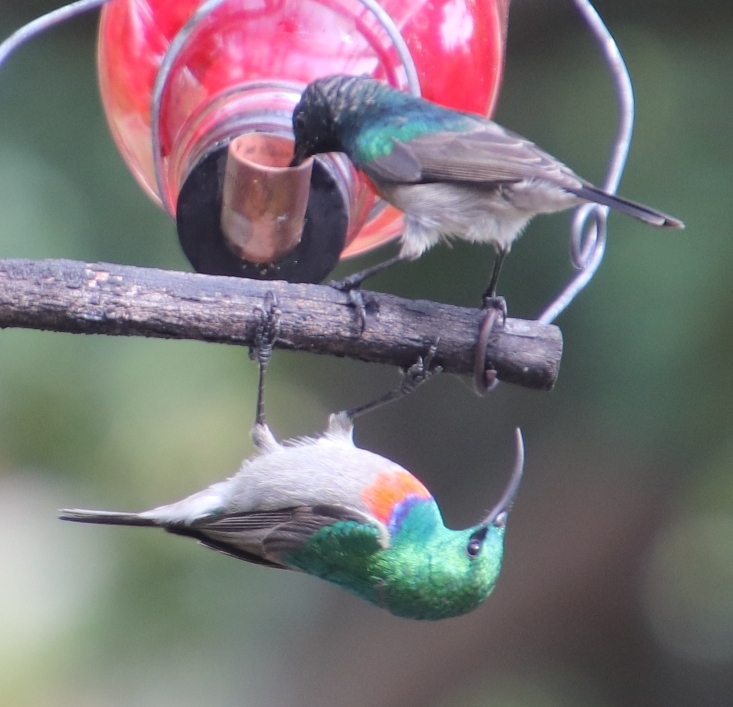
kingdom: Animalia
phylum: Chordata
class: Aves
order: Passeriformes
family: Nectariniidae
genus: Cinnyris
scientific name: Cinnyris chalybeus
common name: Southern double-collared sunbird
